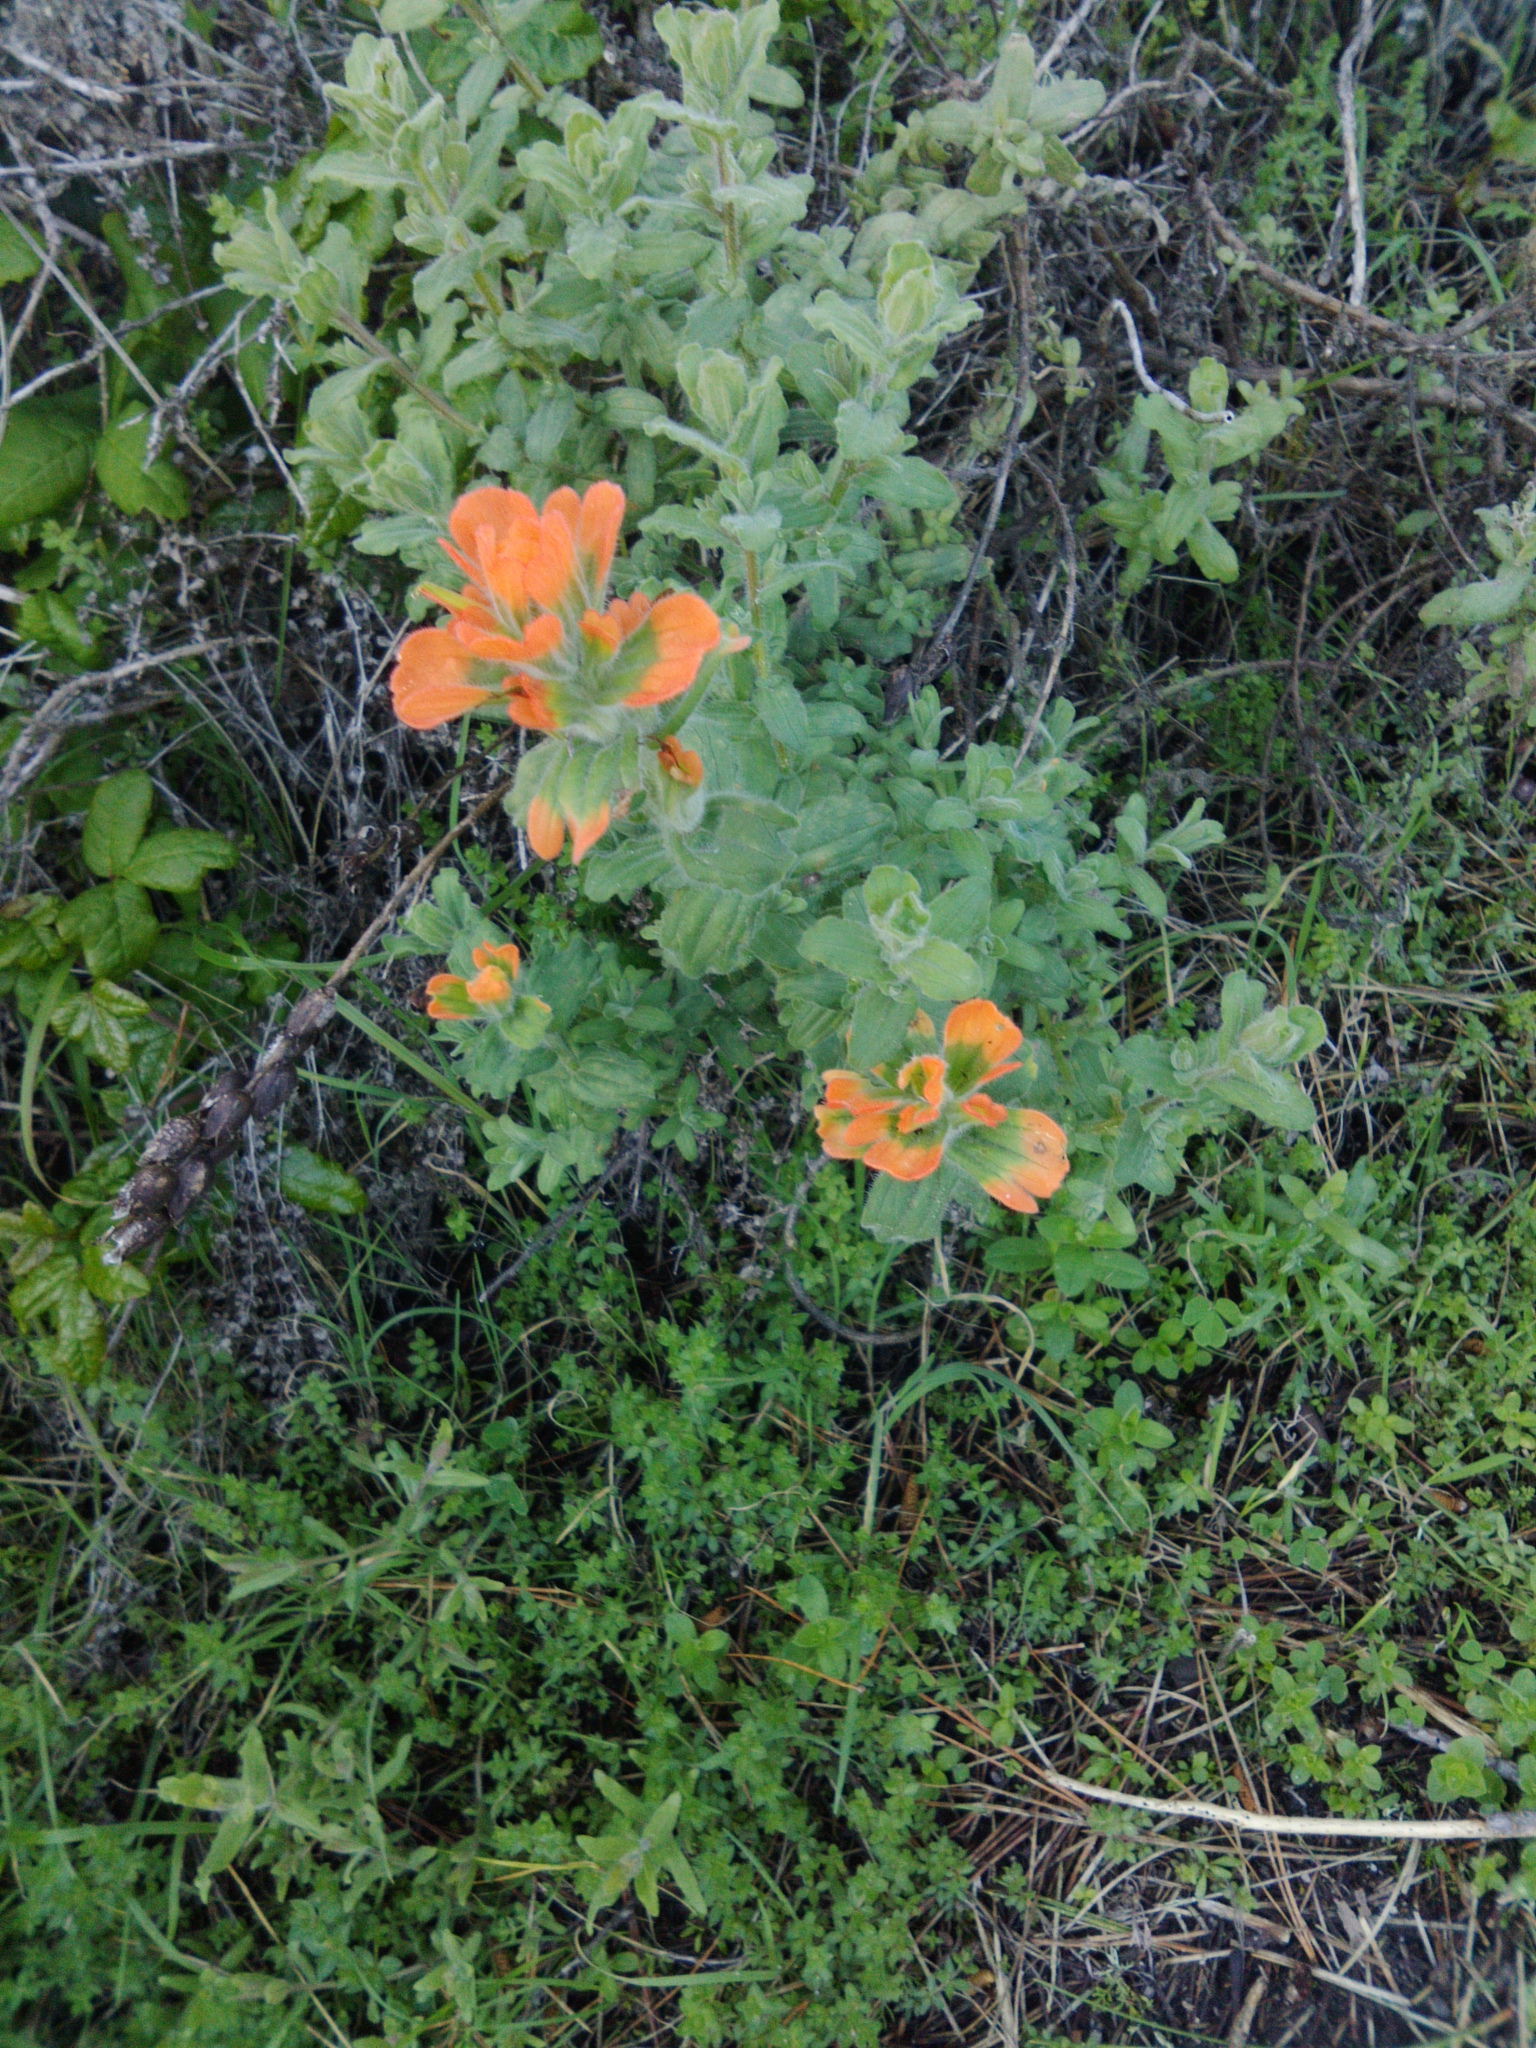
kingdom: Plantae
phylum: Tracheophyta
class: Magnoliopsida
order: Lamiales
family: Orobanchaceae
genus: Castilleja
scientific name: Castilleja latifolia
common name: Monterey indian paintbrush
